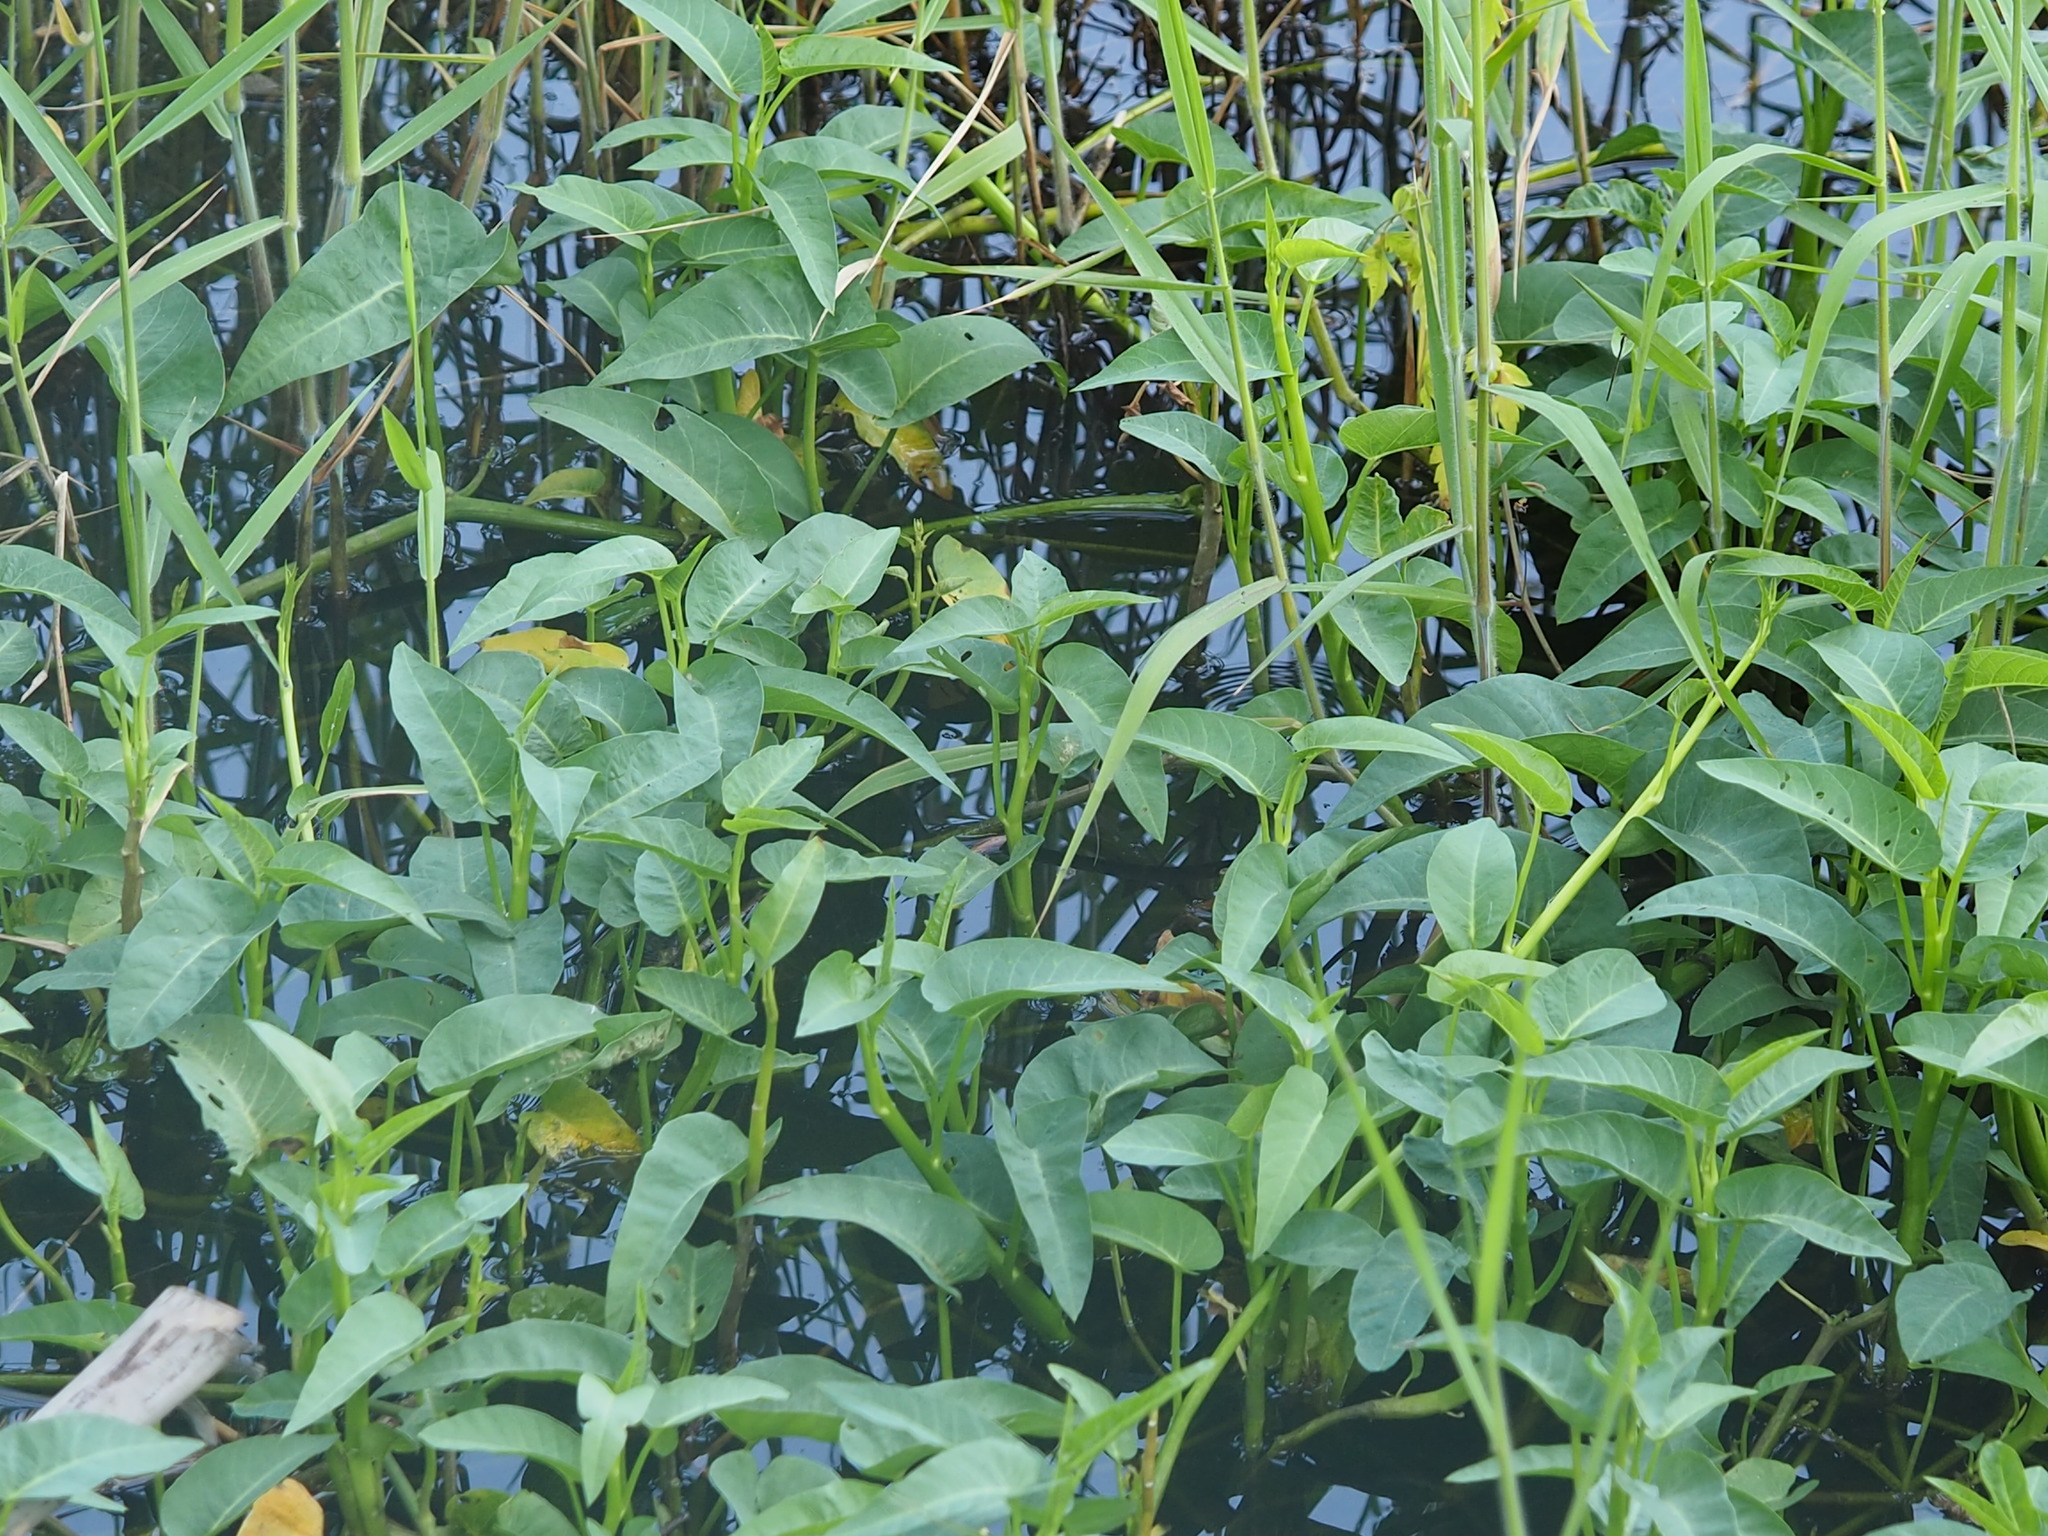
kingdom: Plantae
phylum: Tracheophyta
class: Magnoliopsida
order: Solanales
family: Convolvulaceae
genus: Ipomoea
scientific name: Ipomoea aquatica
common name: Swamp morning-glory
